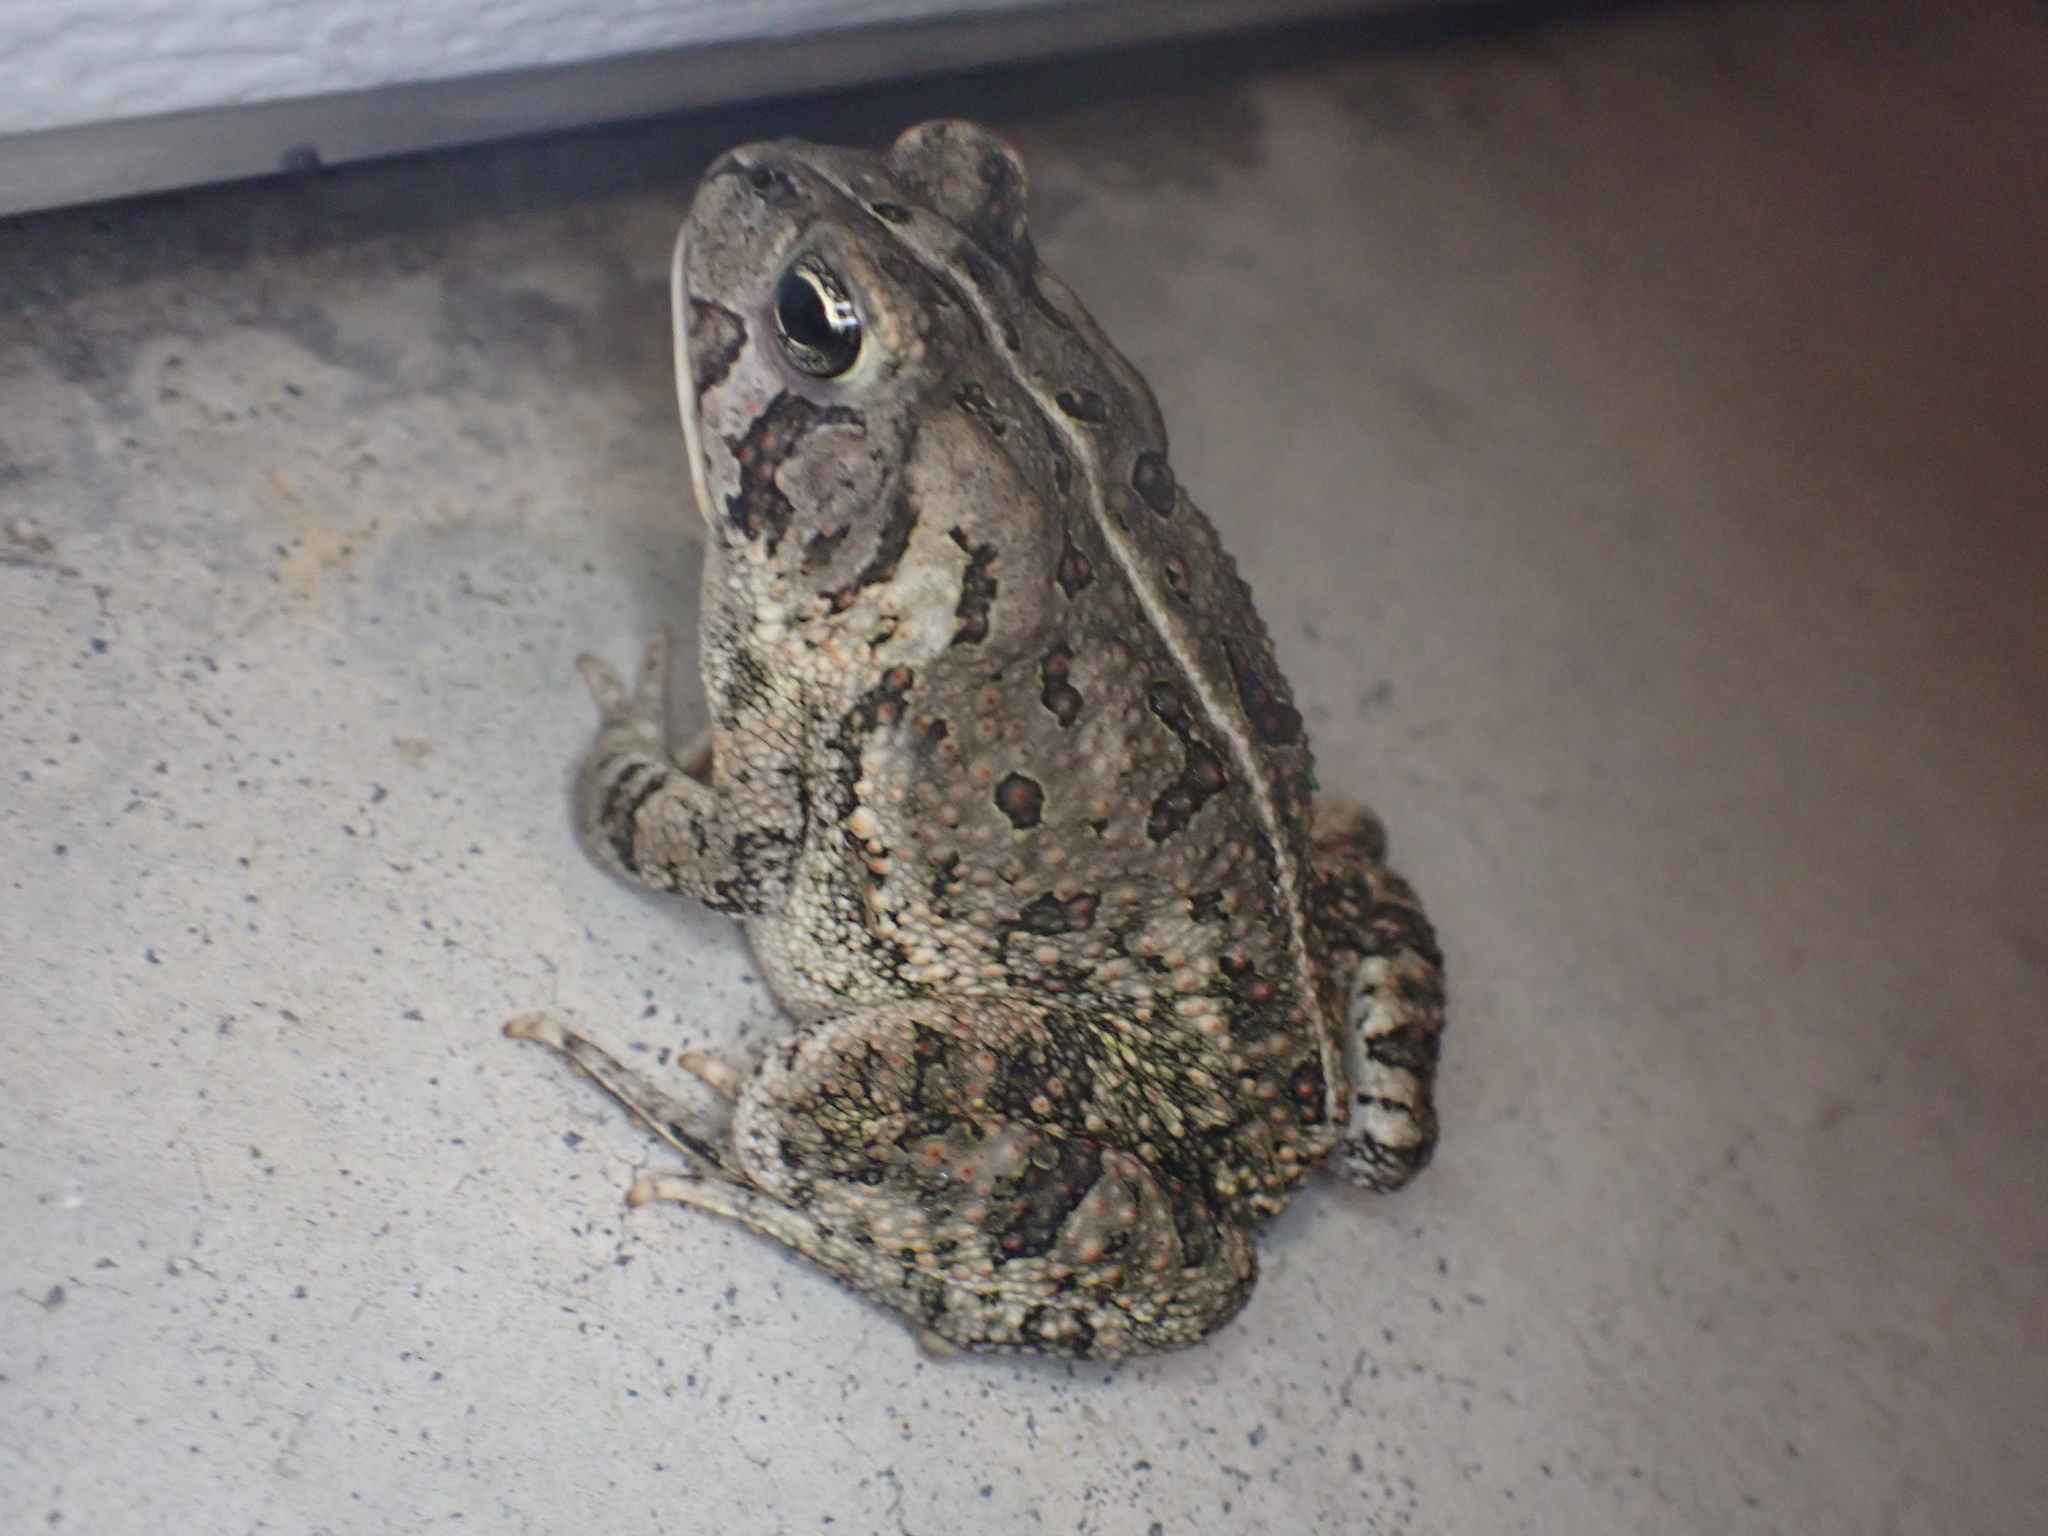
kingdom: Animalia
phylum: Chordata
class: Amphibia
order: Anura
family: Bufonidae
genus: Anaxyrus
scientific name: Anaxyrus fowleri
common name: Fowler's toad
